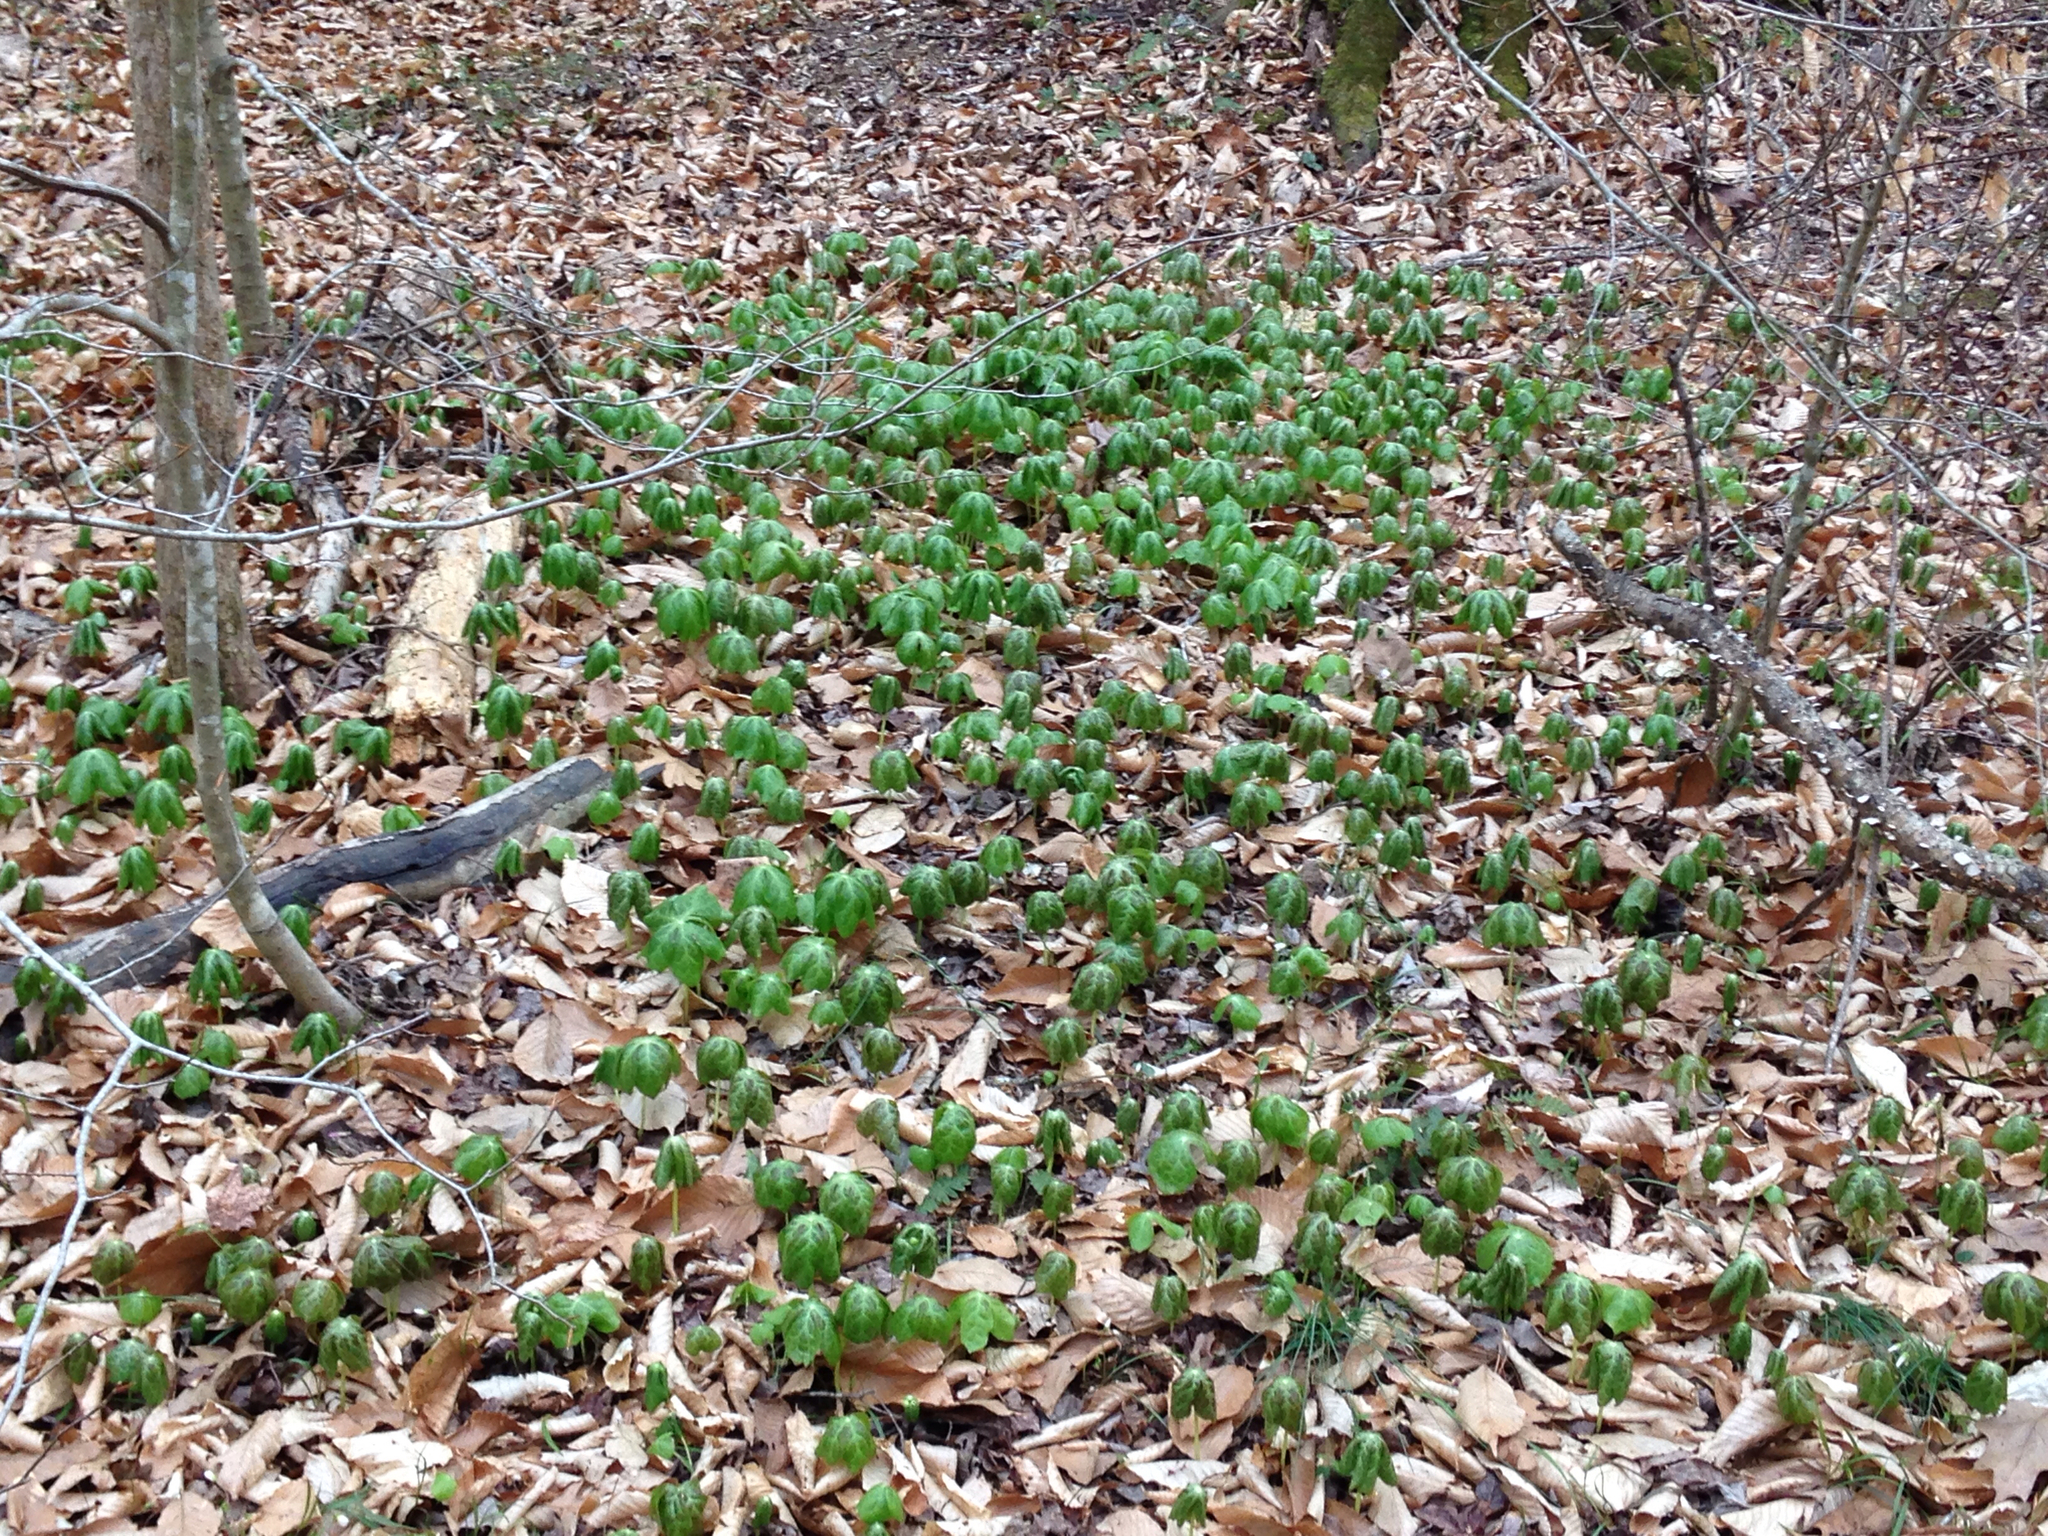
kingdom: Plantae
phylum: Tracheophyta
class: Magnoliopsida
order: Ranunculales
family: Berberidaceae
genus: Podophyllum
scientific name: Podophyllum peltatum
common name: Wild mandrake
